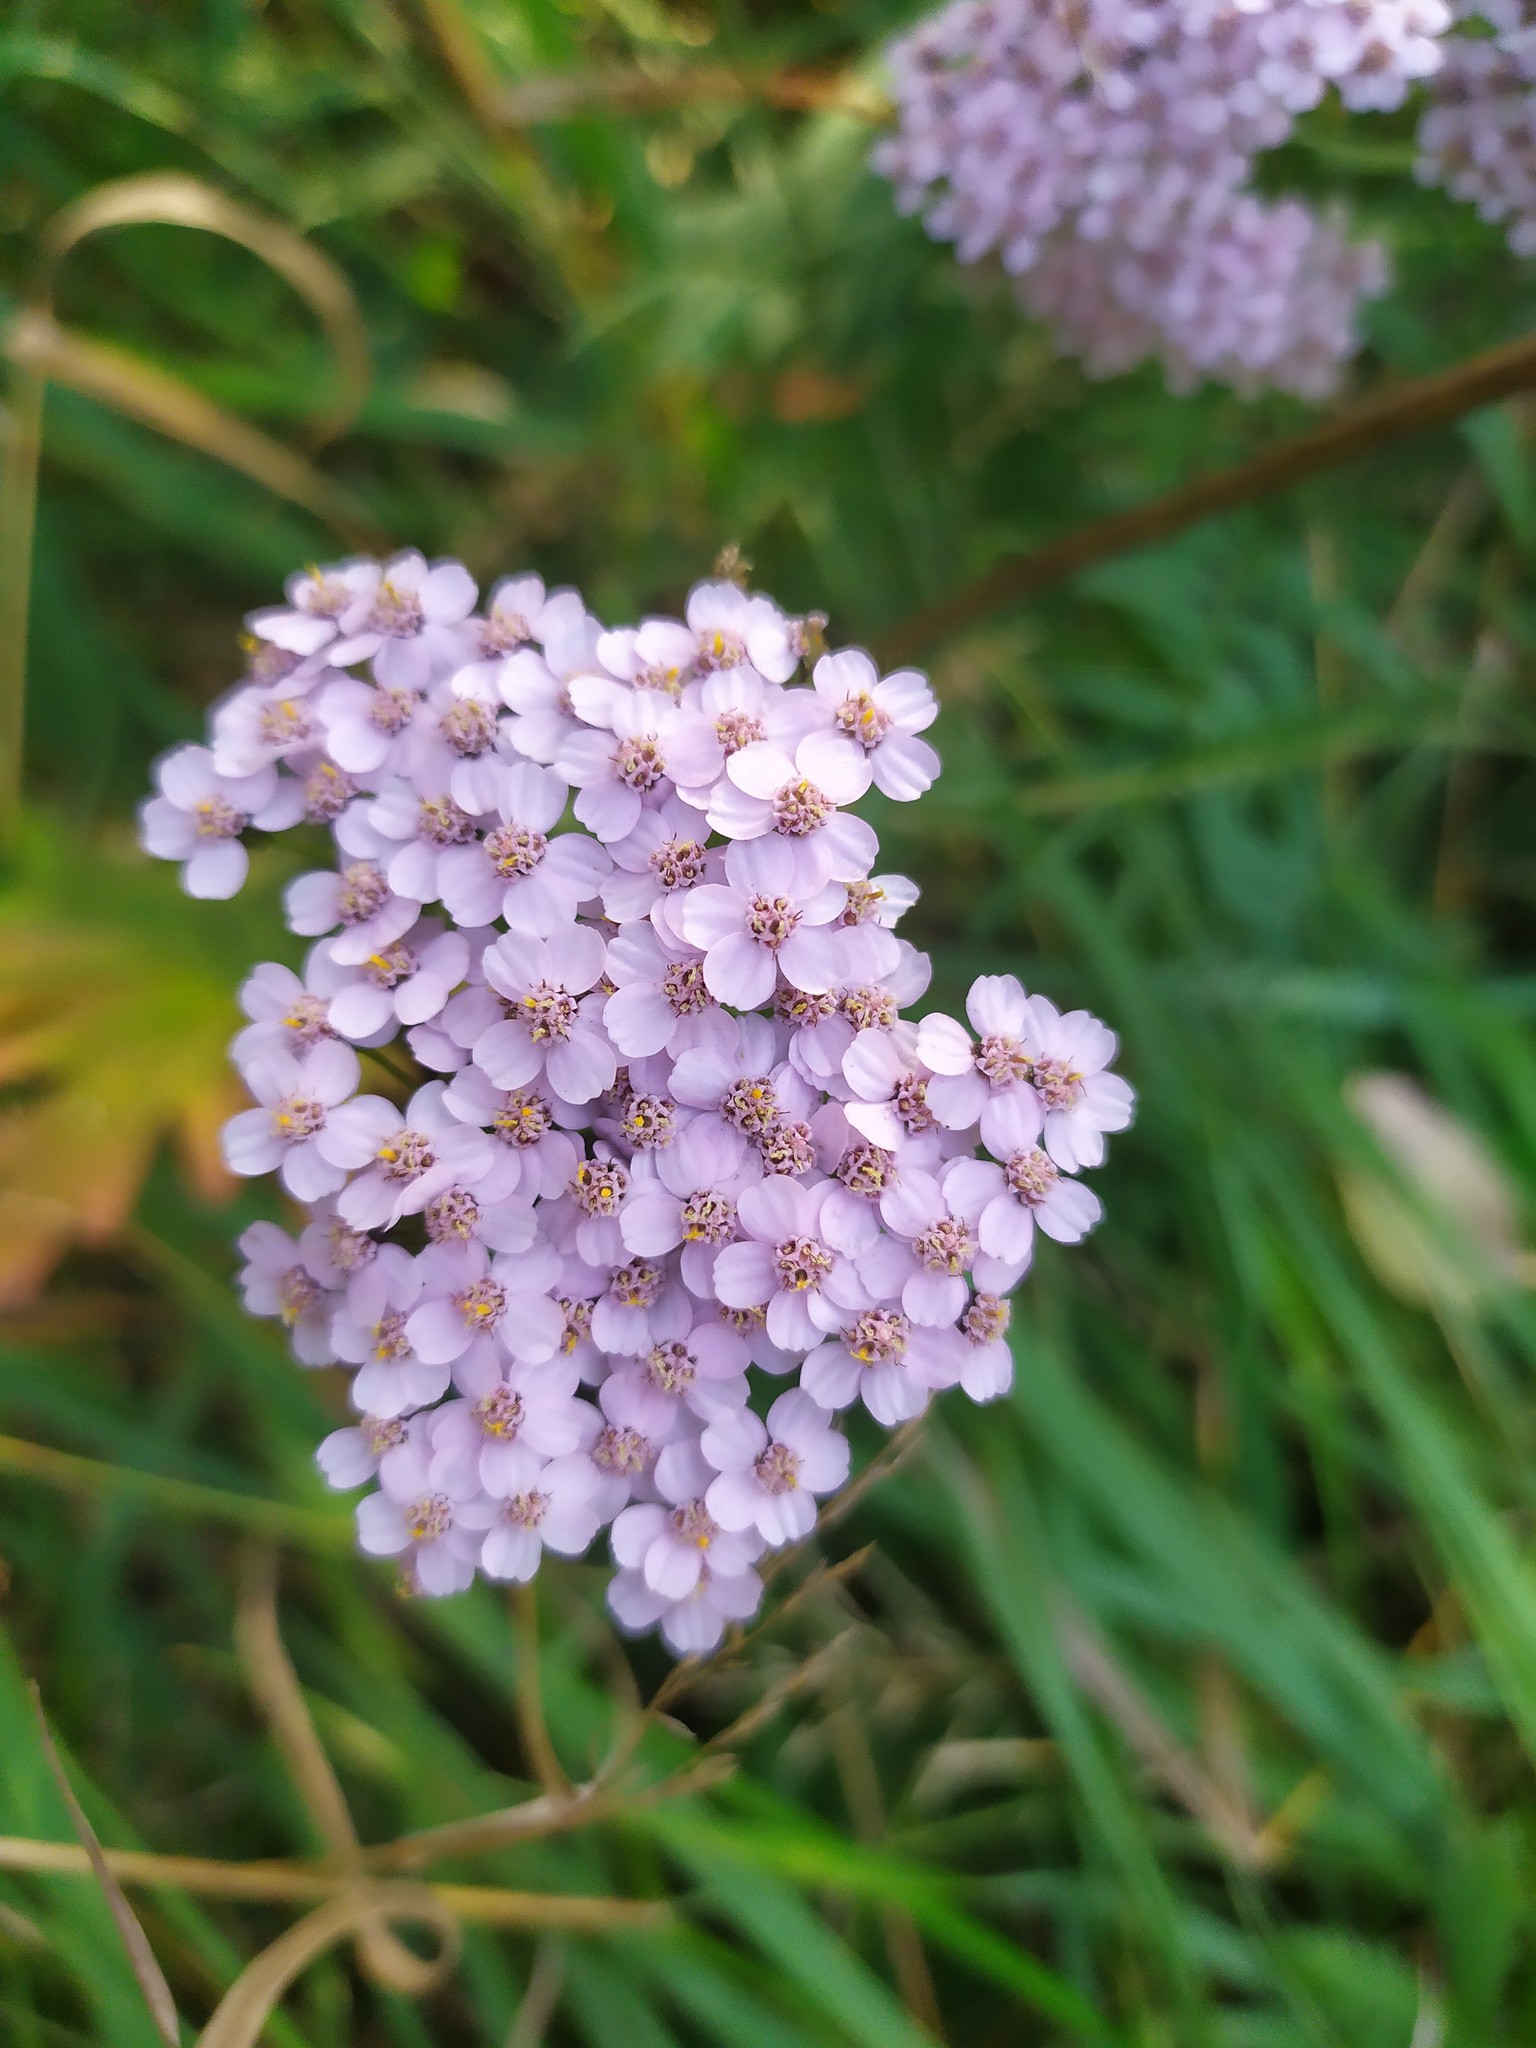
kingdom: Plantae
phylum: Tracheophyta
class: Magnoliopsida
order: Asterales
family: Asteraceae
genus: Achillea
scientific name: Achillea
